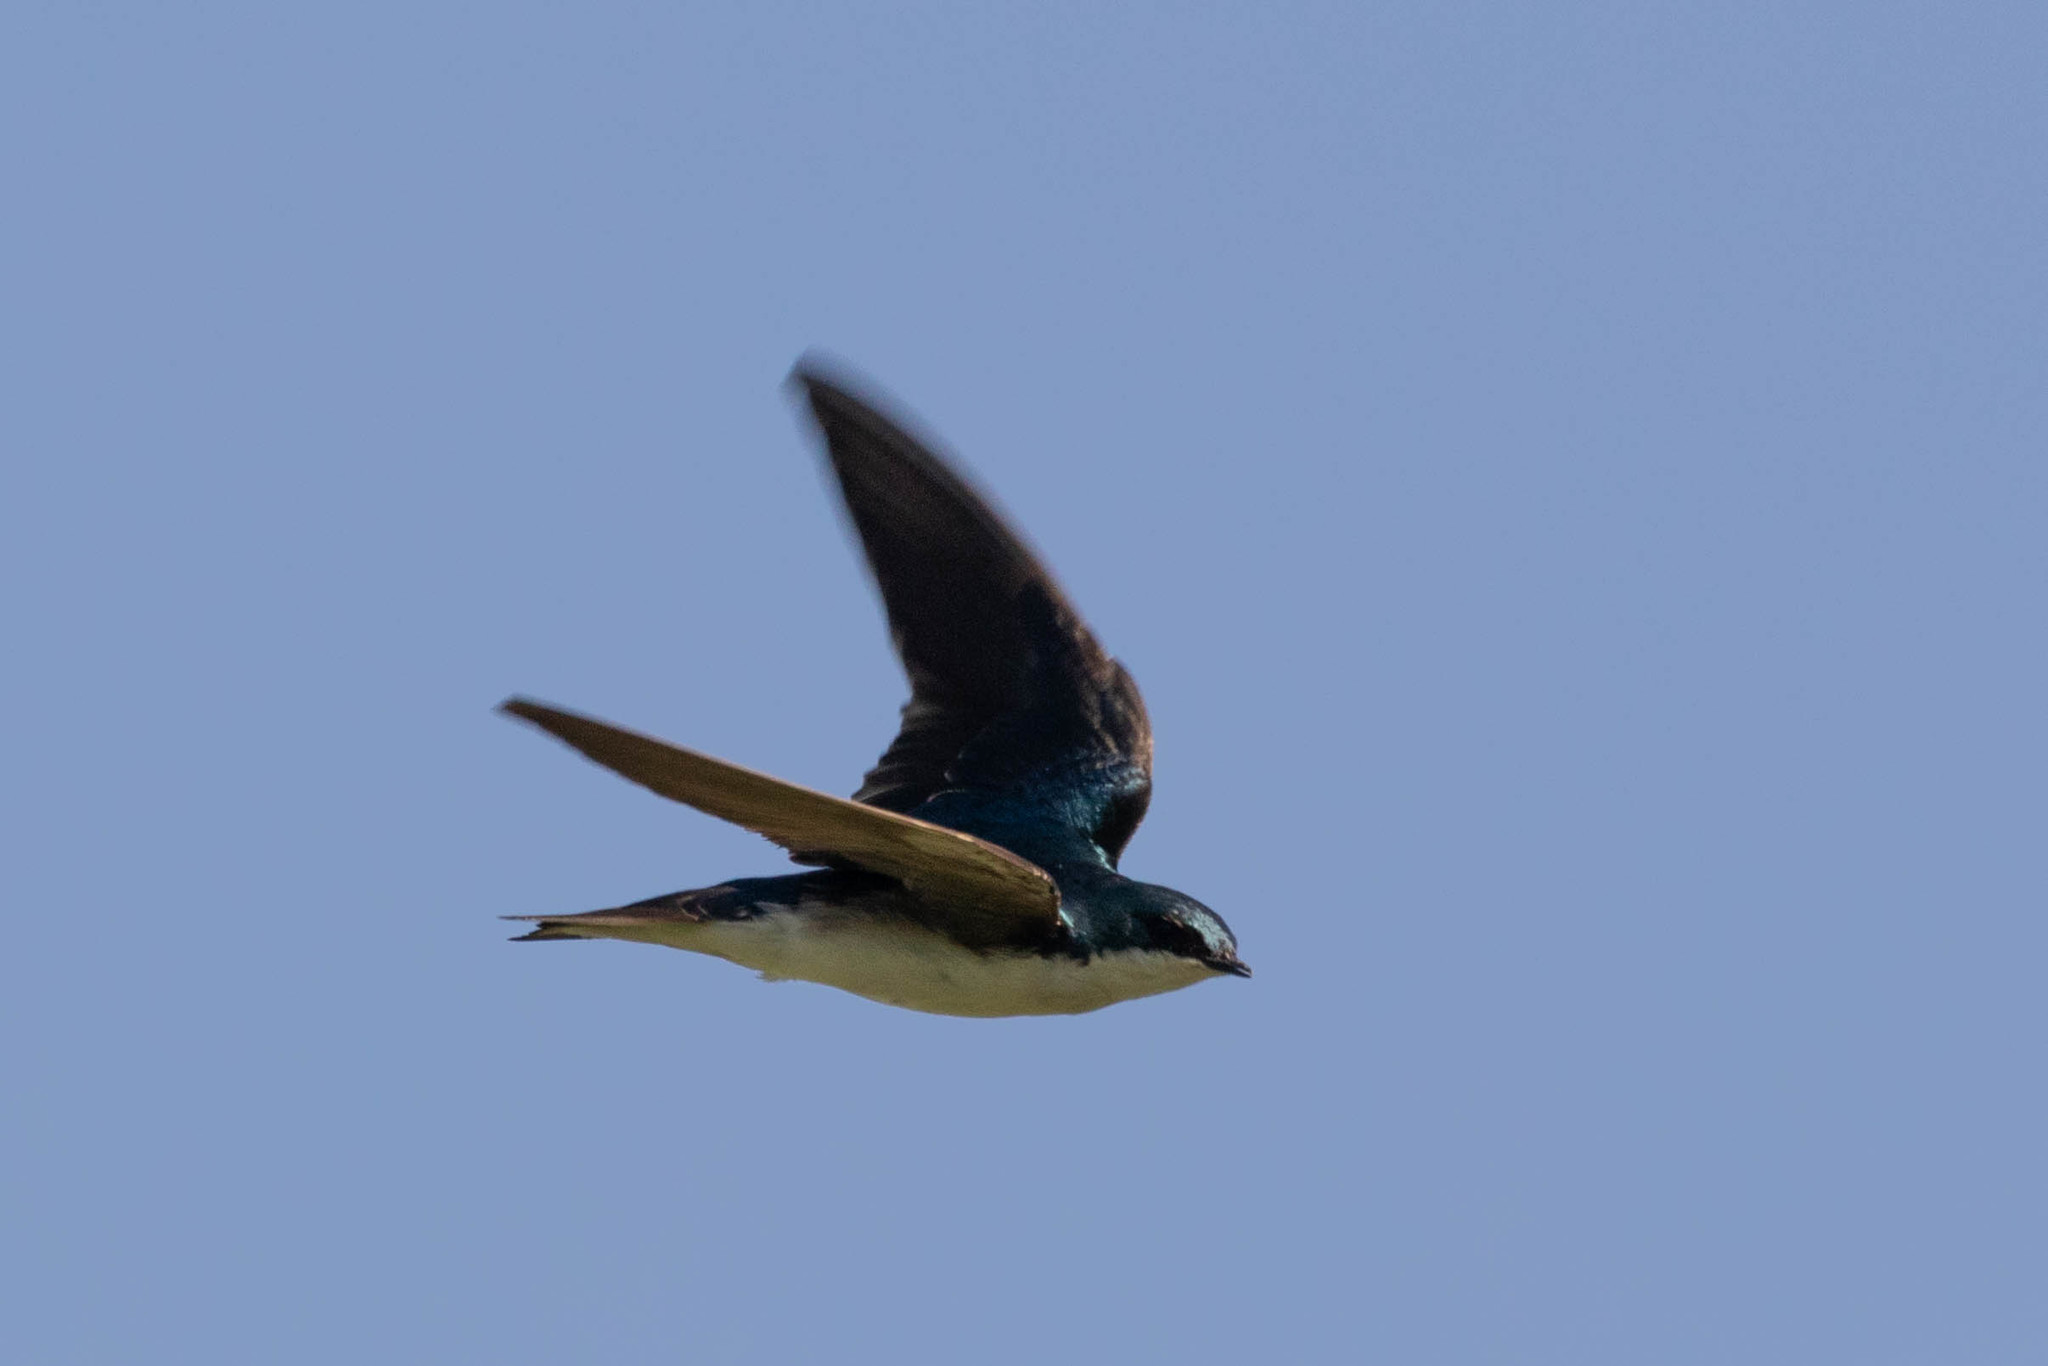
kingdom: Animalia
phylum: Chordata
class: Aves
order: Passeriformes
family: Hirundinidae
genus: Tachycineta
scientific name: Tachycineta bicolor
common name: Tree swallow
